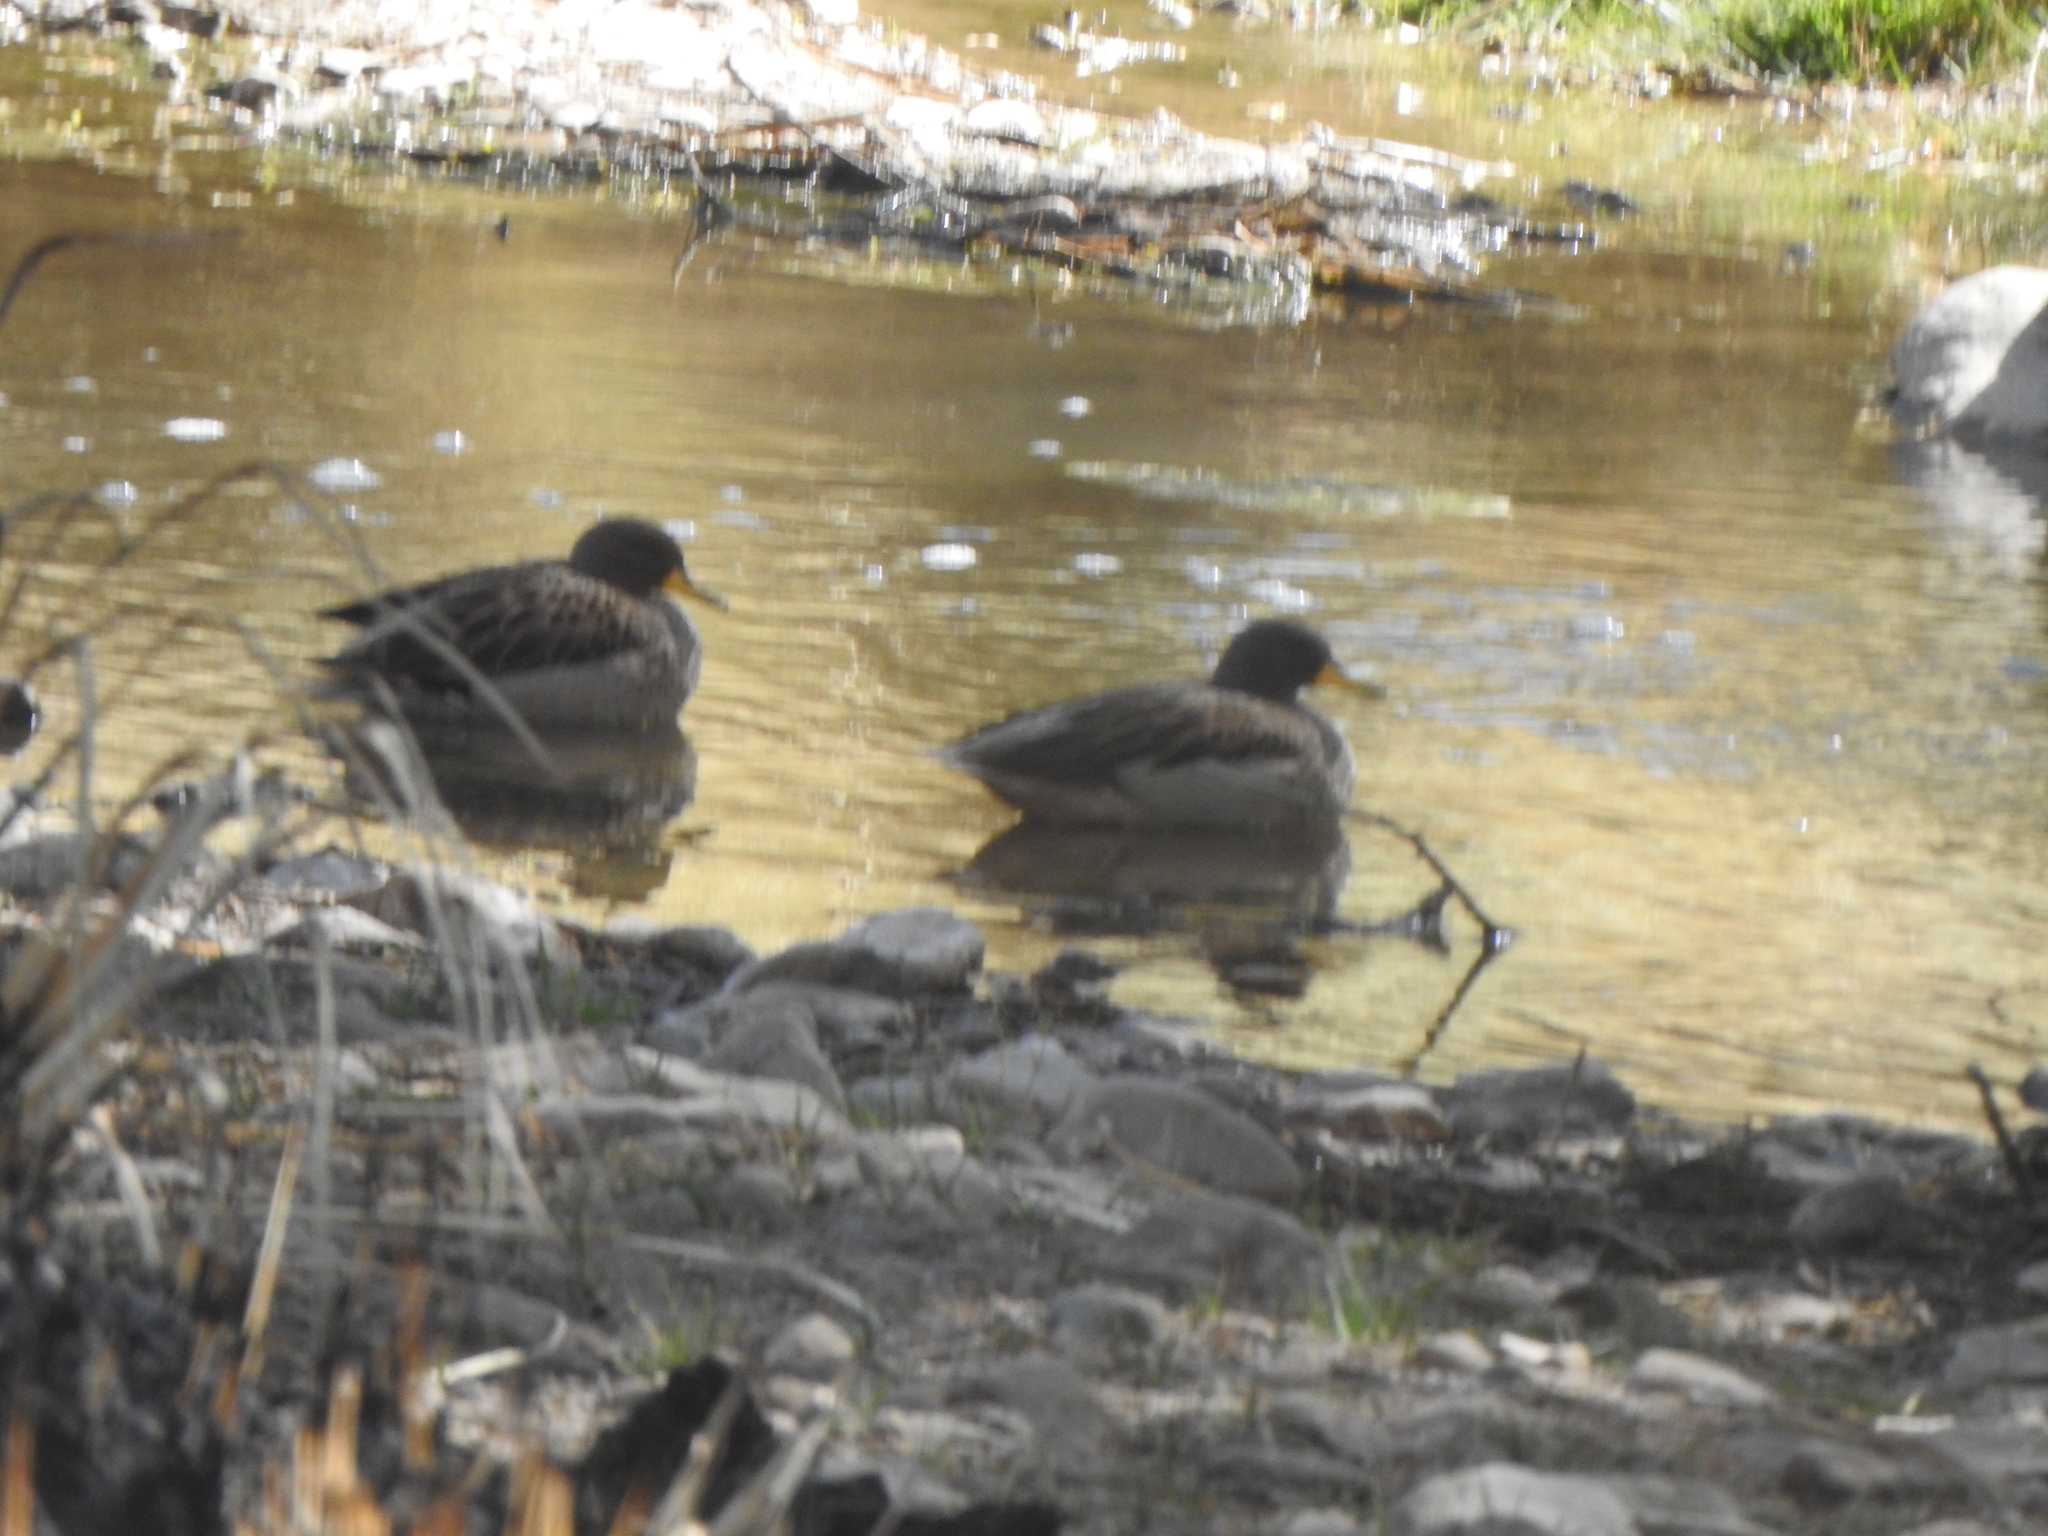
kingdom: Animalia
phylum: Chordata
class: Aves
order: Anseriformes
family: Anatidae
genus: Anas
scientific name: Anas flavirostris
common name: Yellow-billed teal
